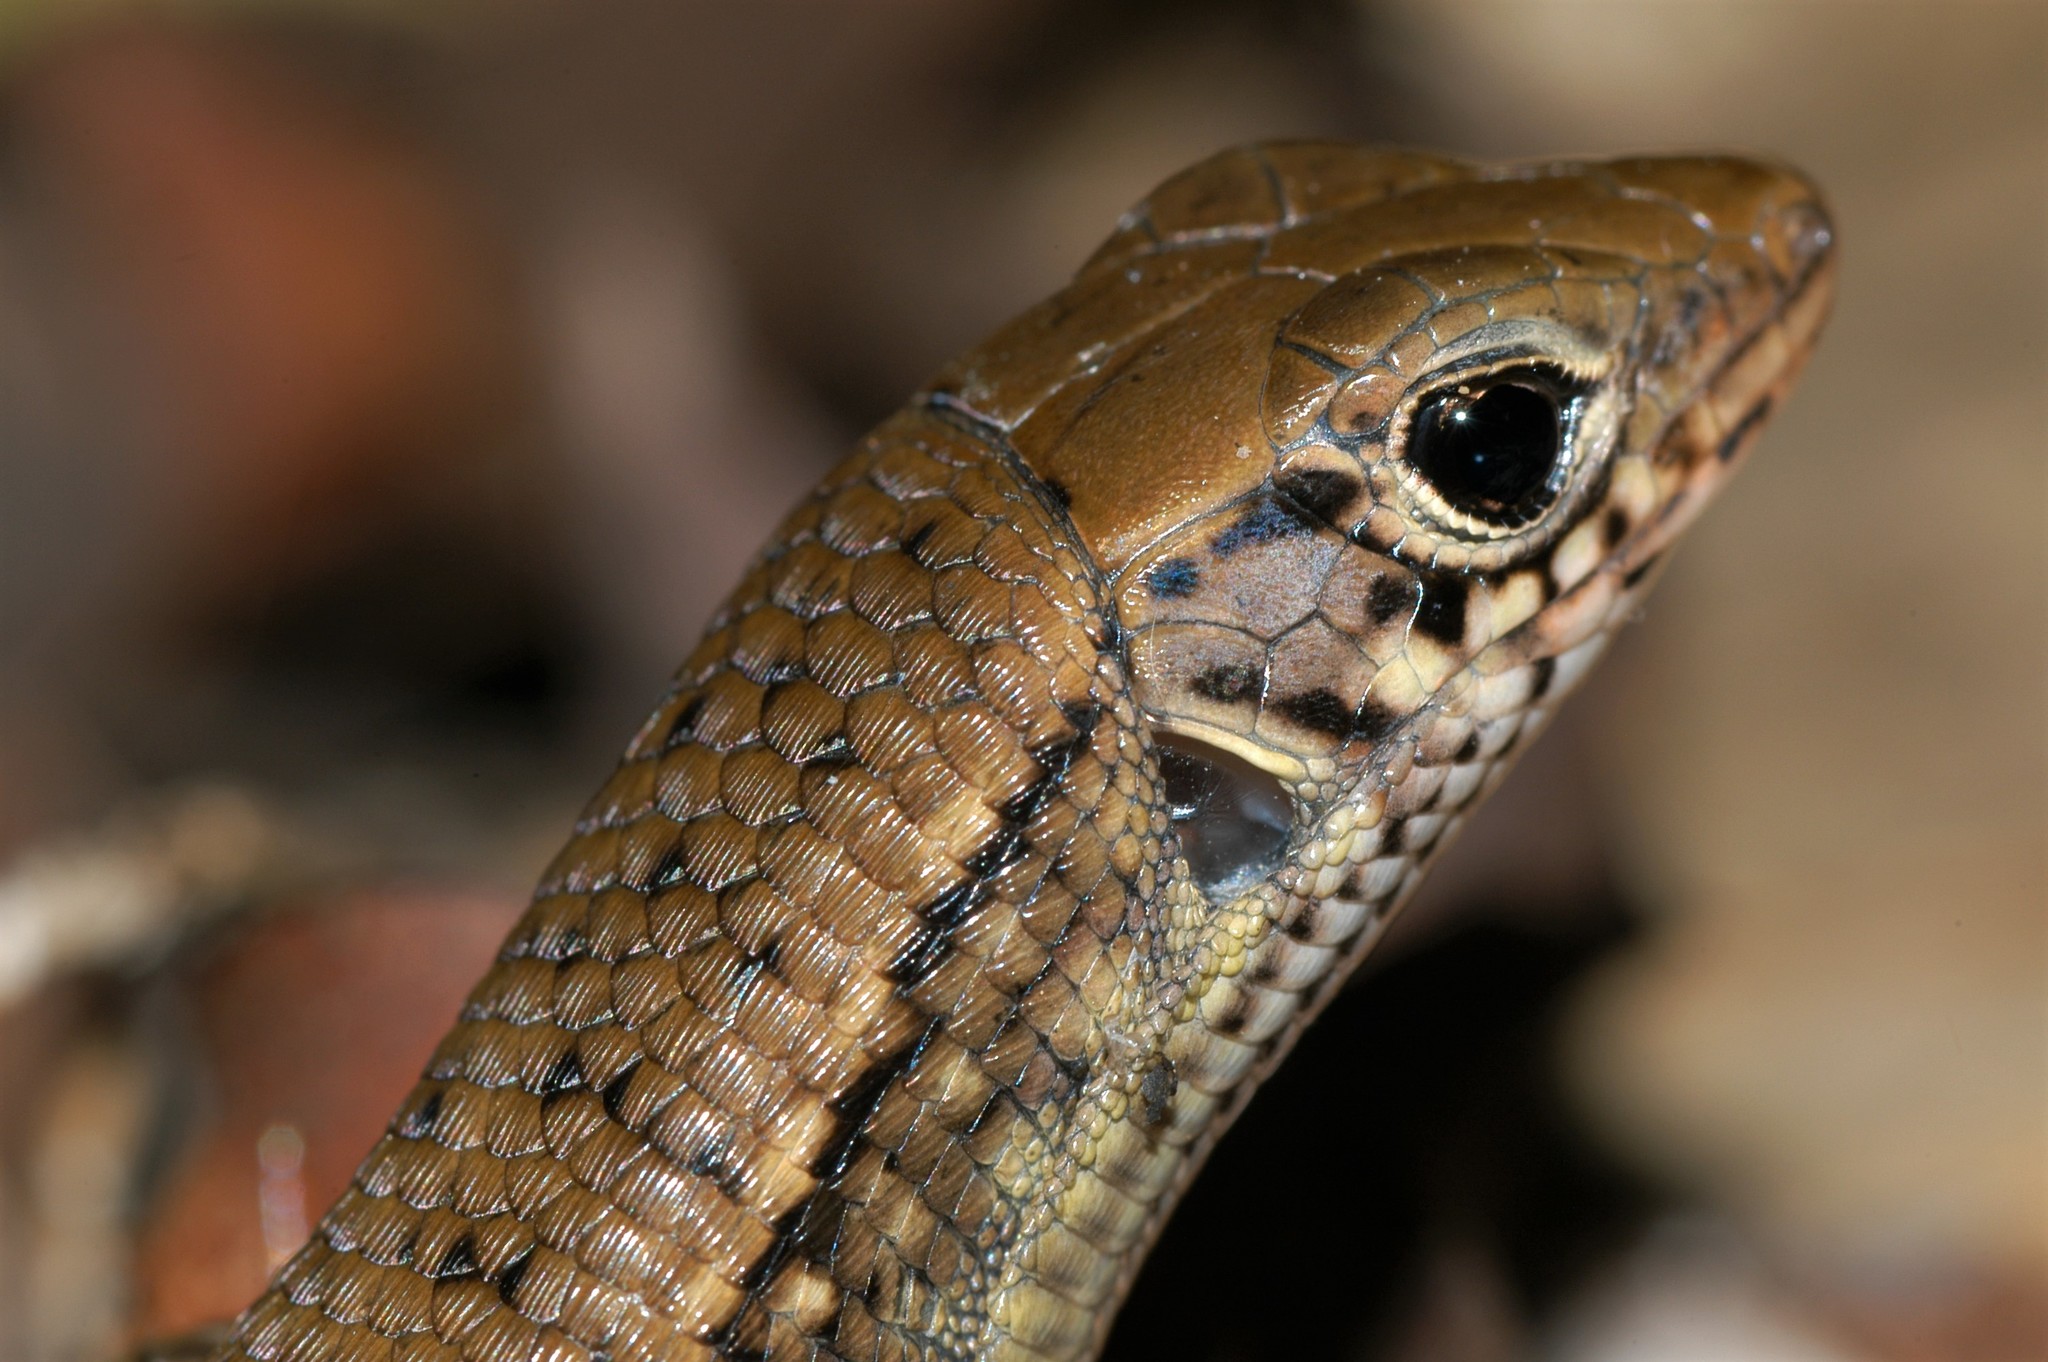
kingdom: Animalia
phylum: Chordata
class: Squamata
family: Gerrhosauridae
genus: Zonosaurus
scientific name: Zonosaurus rufipes
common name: Red-legged girdled lizard
